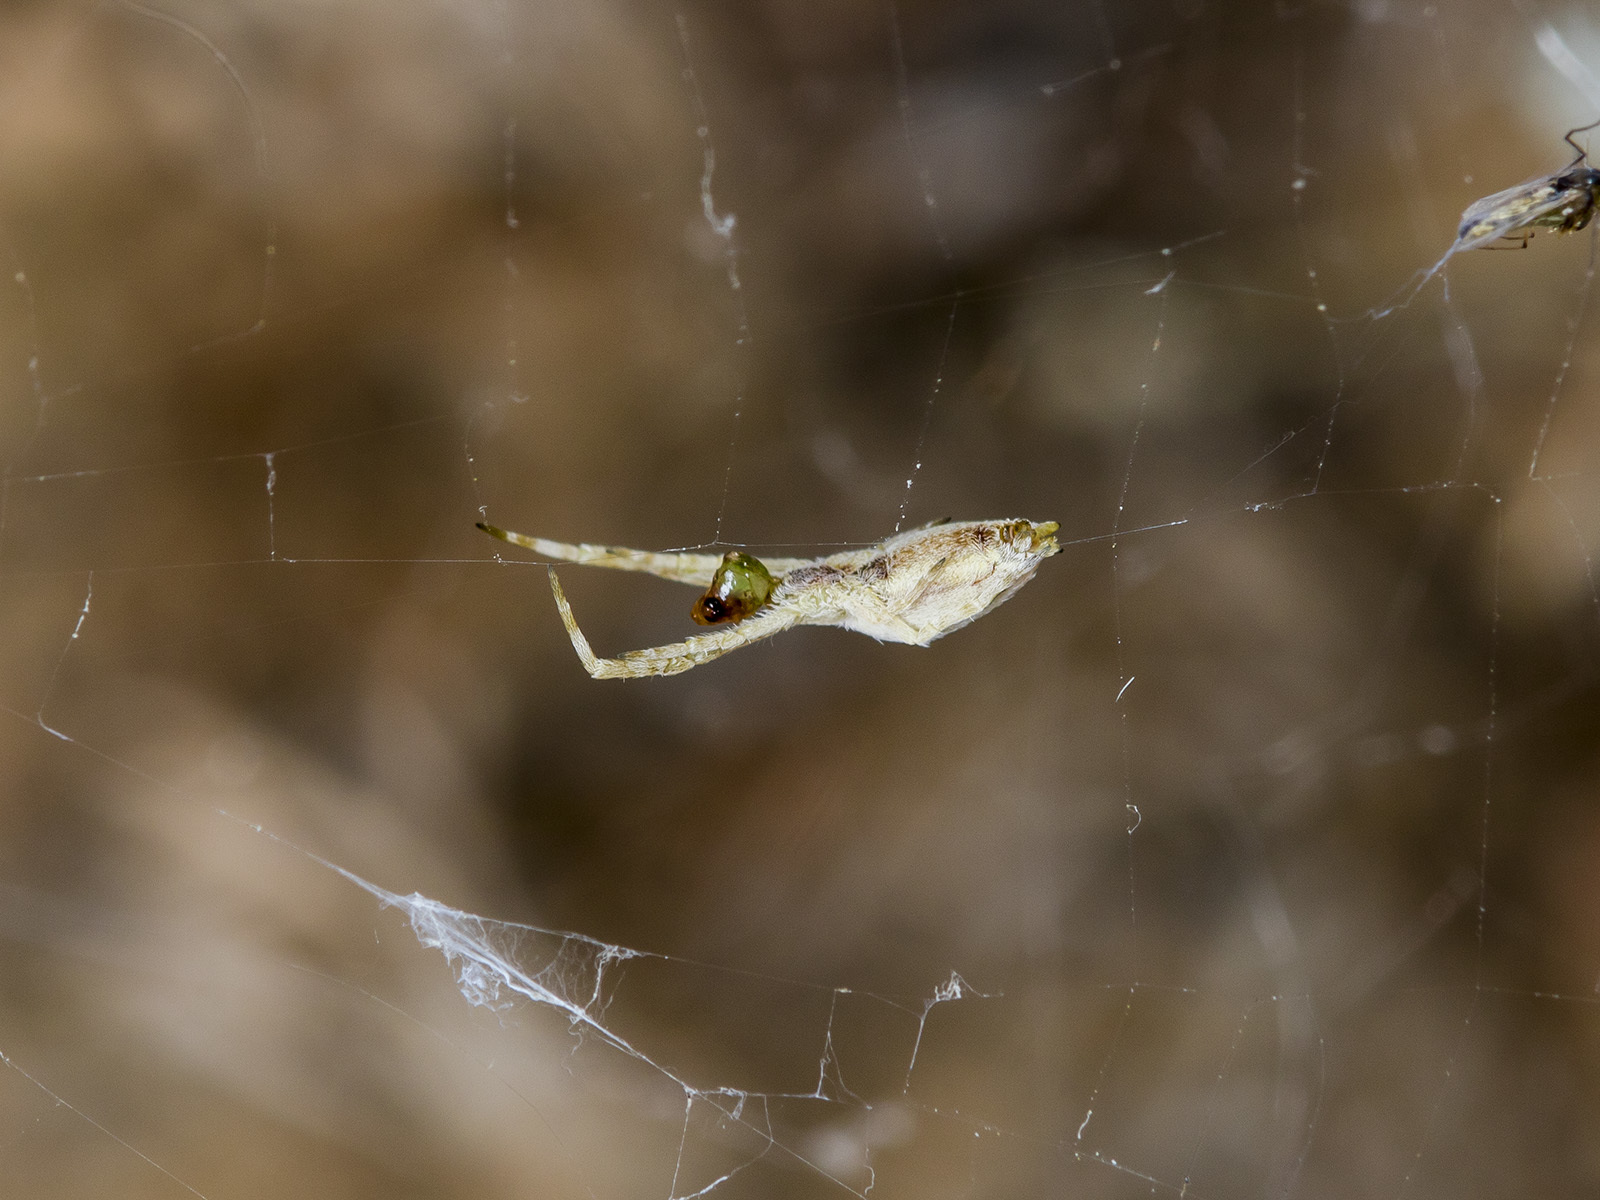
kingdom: Animalia
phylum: Arthropoda
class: Arachnida
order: Araneae
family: Uloboridae
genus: Uloborus
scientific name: Uloborus walckenaerius
